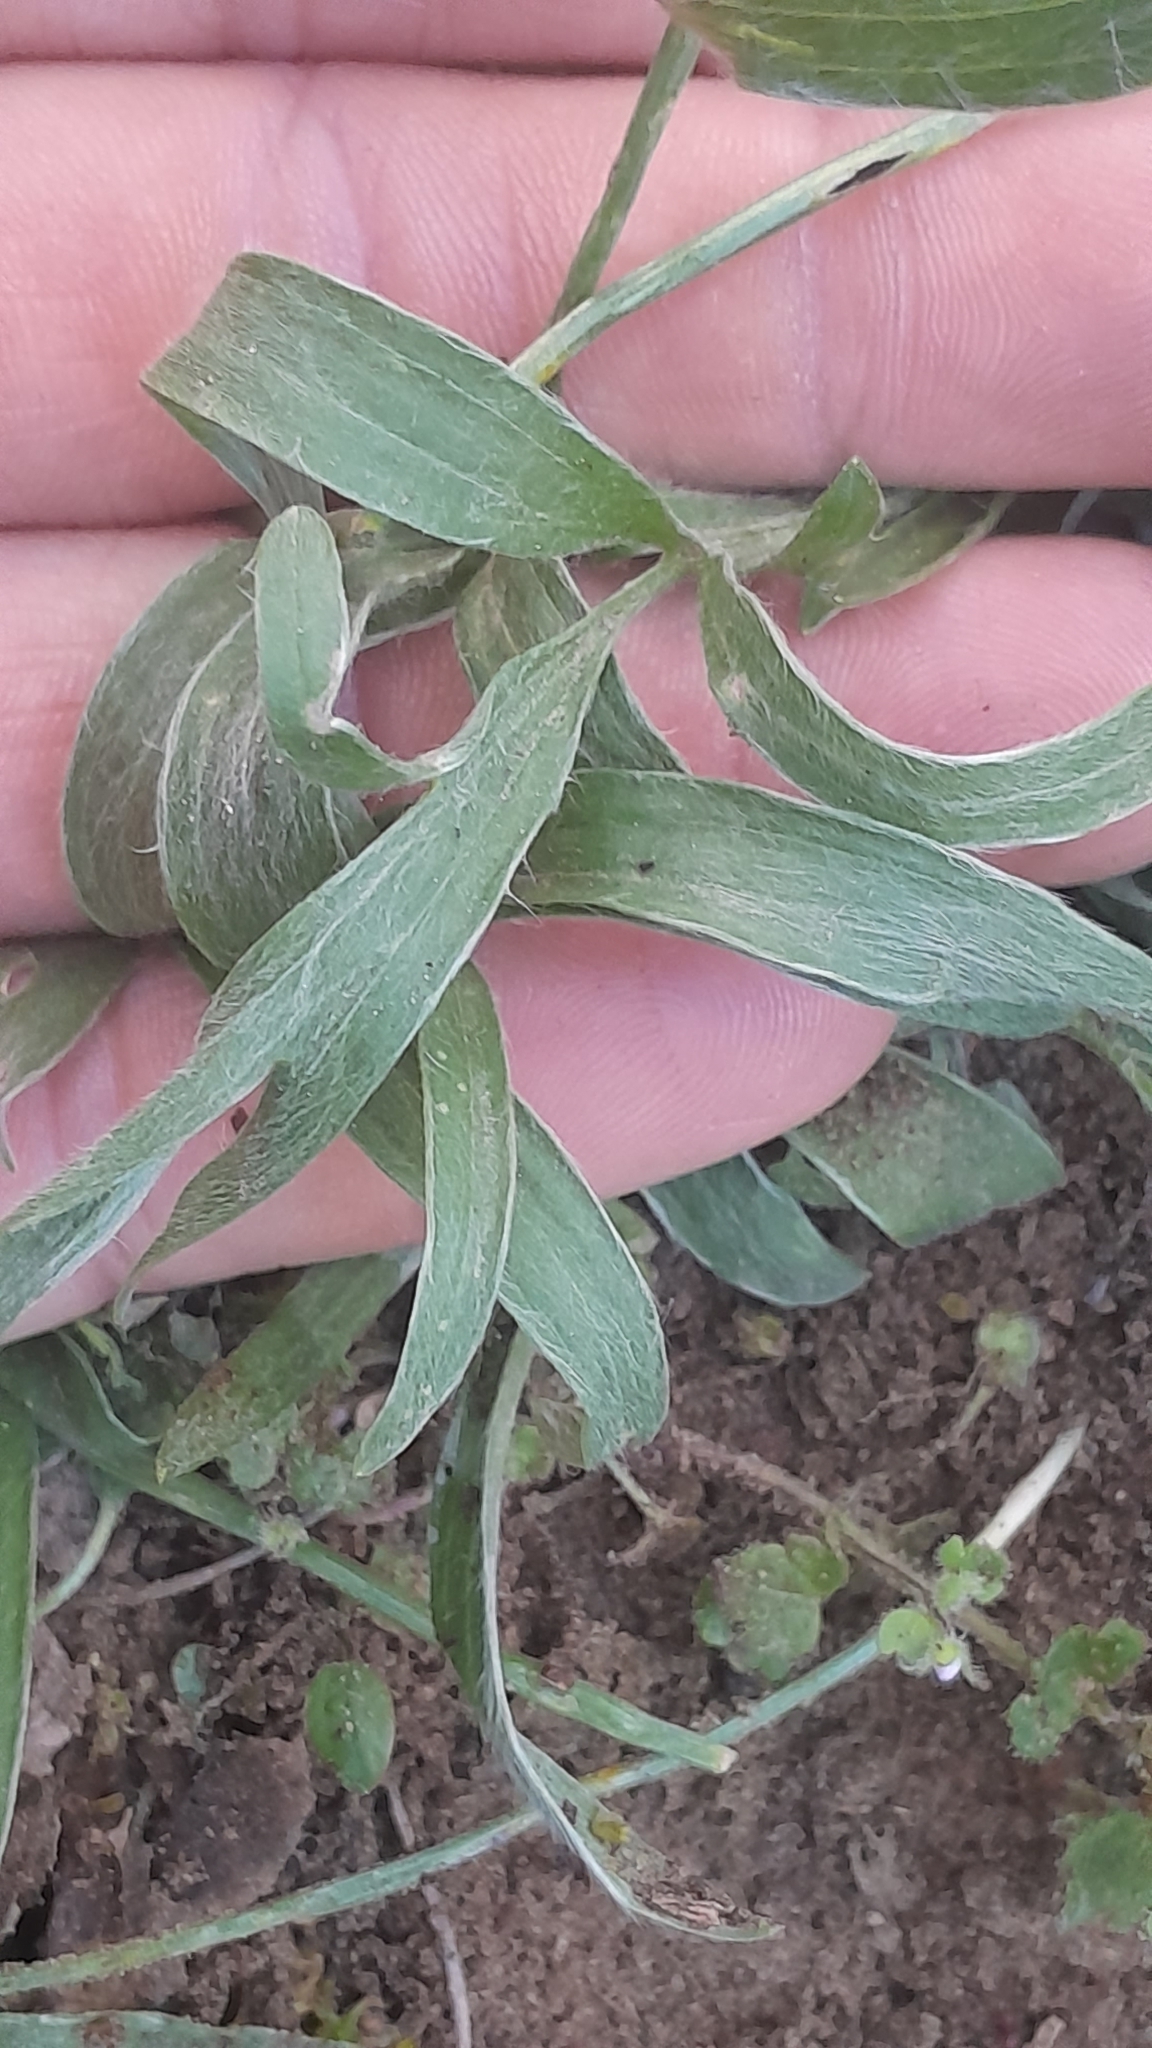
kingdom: Plantae
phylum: Tracheophyta
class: Magnoliopsida
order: Ranunculales
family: Ranunculaceae
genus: Ranunculus
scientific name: Ranunculus illyricus
